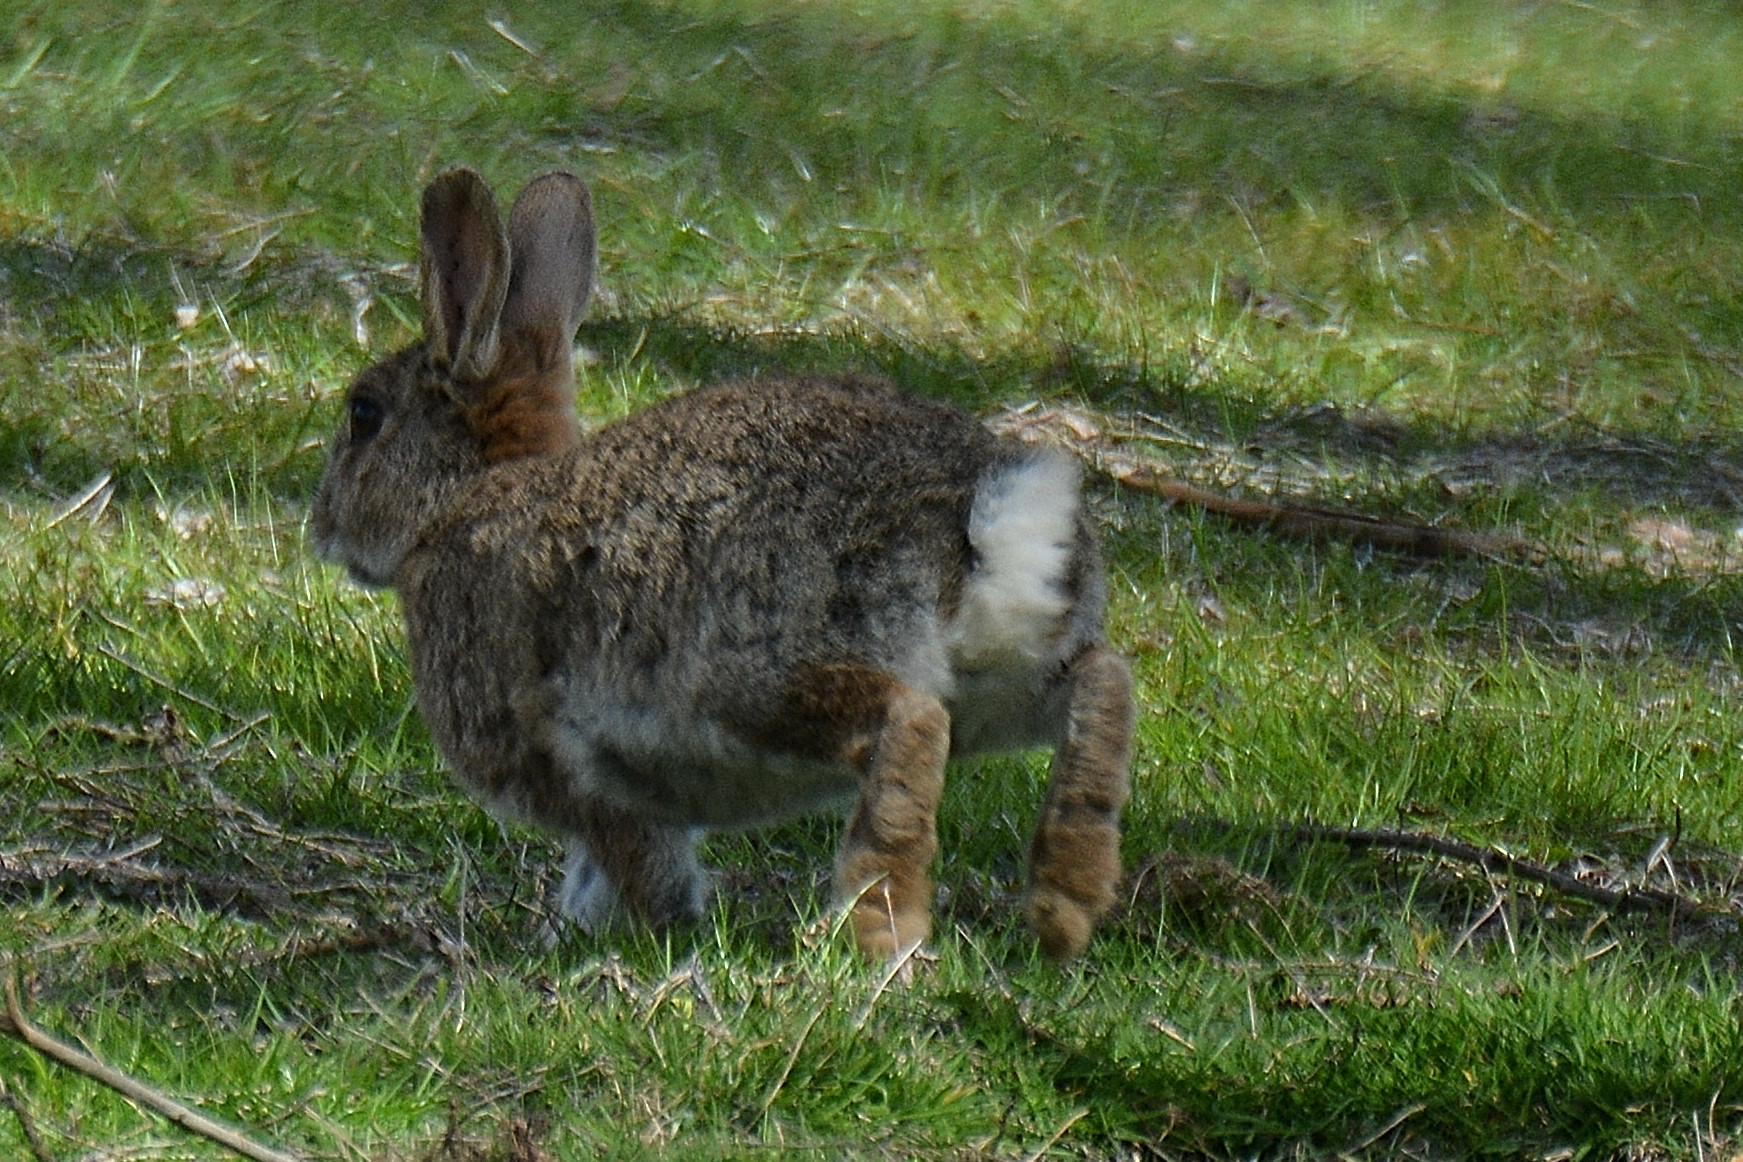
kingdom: Animalia
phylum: Chordata
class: Mammalia
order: Lagomorpha
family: Leporidae
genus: Oryctolagus
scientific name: Oryctolagus cuniculus
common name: European rabbit
